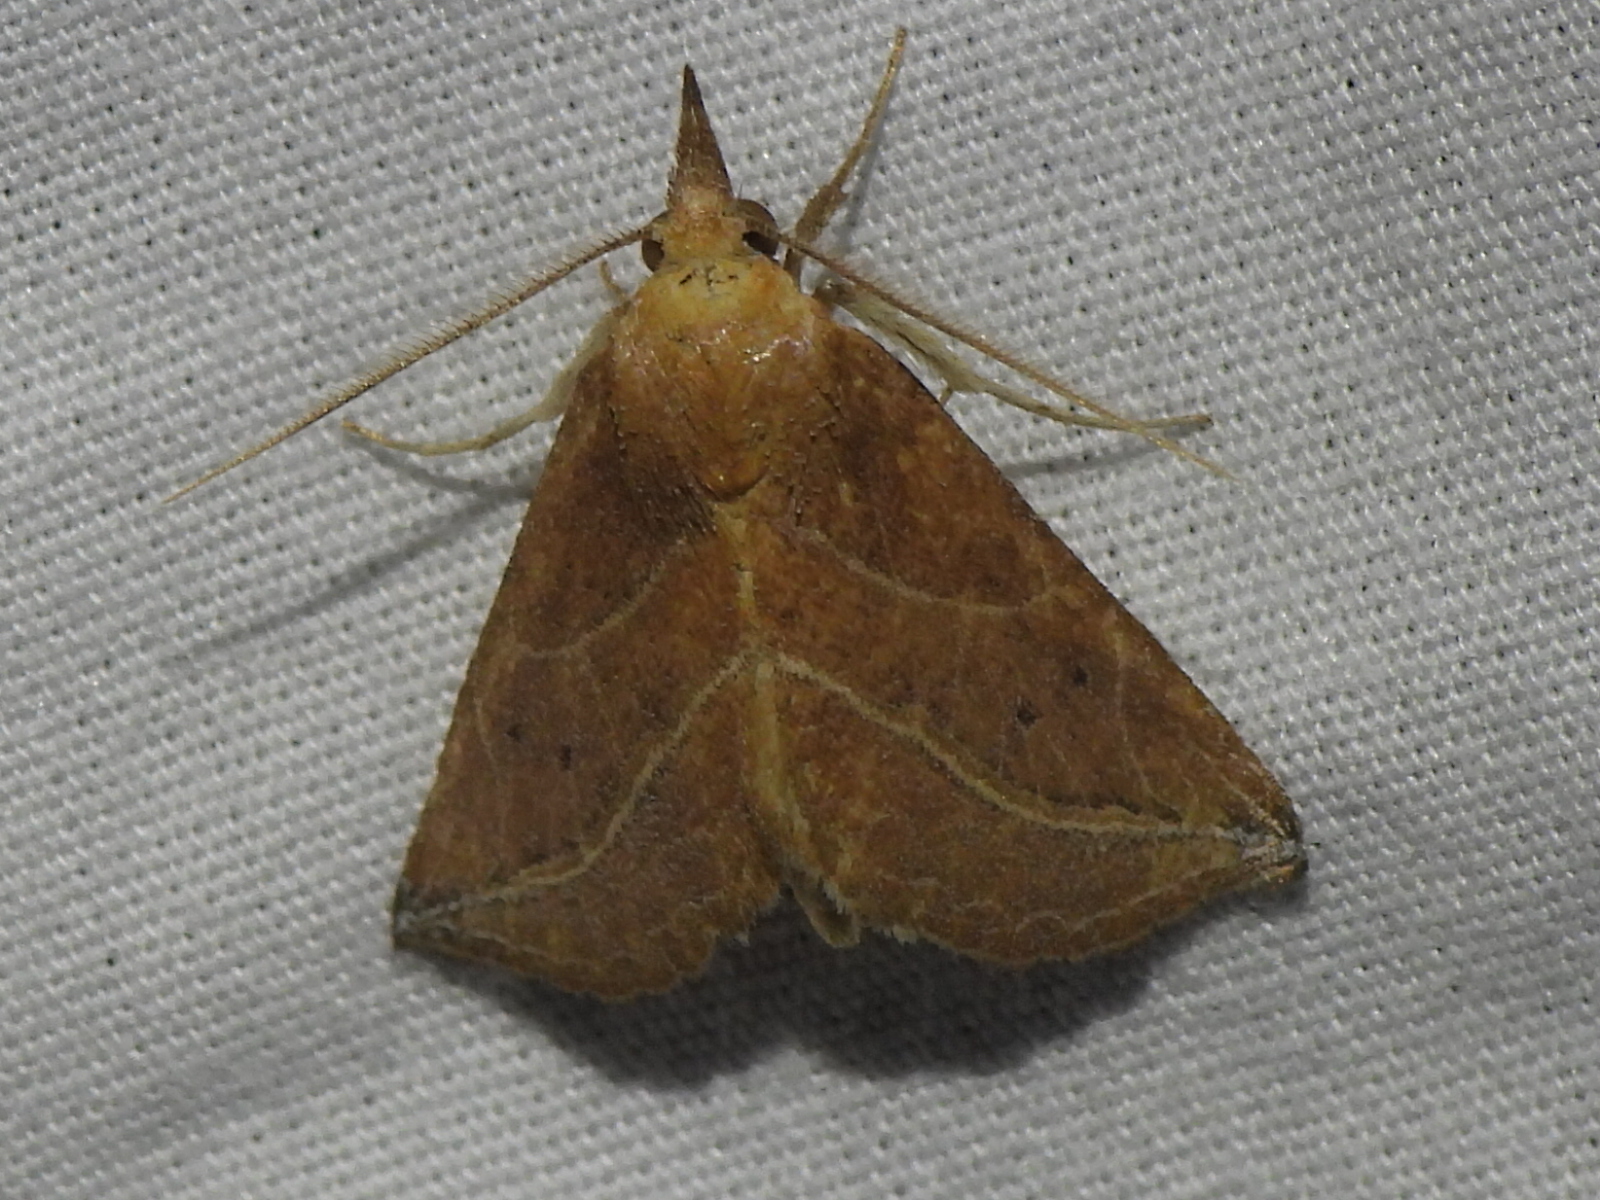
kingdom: Animalia
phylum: Arthropoda
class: Insecta
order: Lepidoptera
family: Erebidae
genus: Phyprosopus
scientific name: Phyprosopus callitrichoides
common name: Curved-lined owlet
